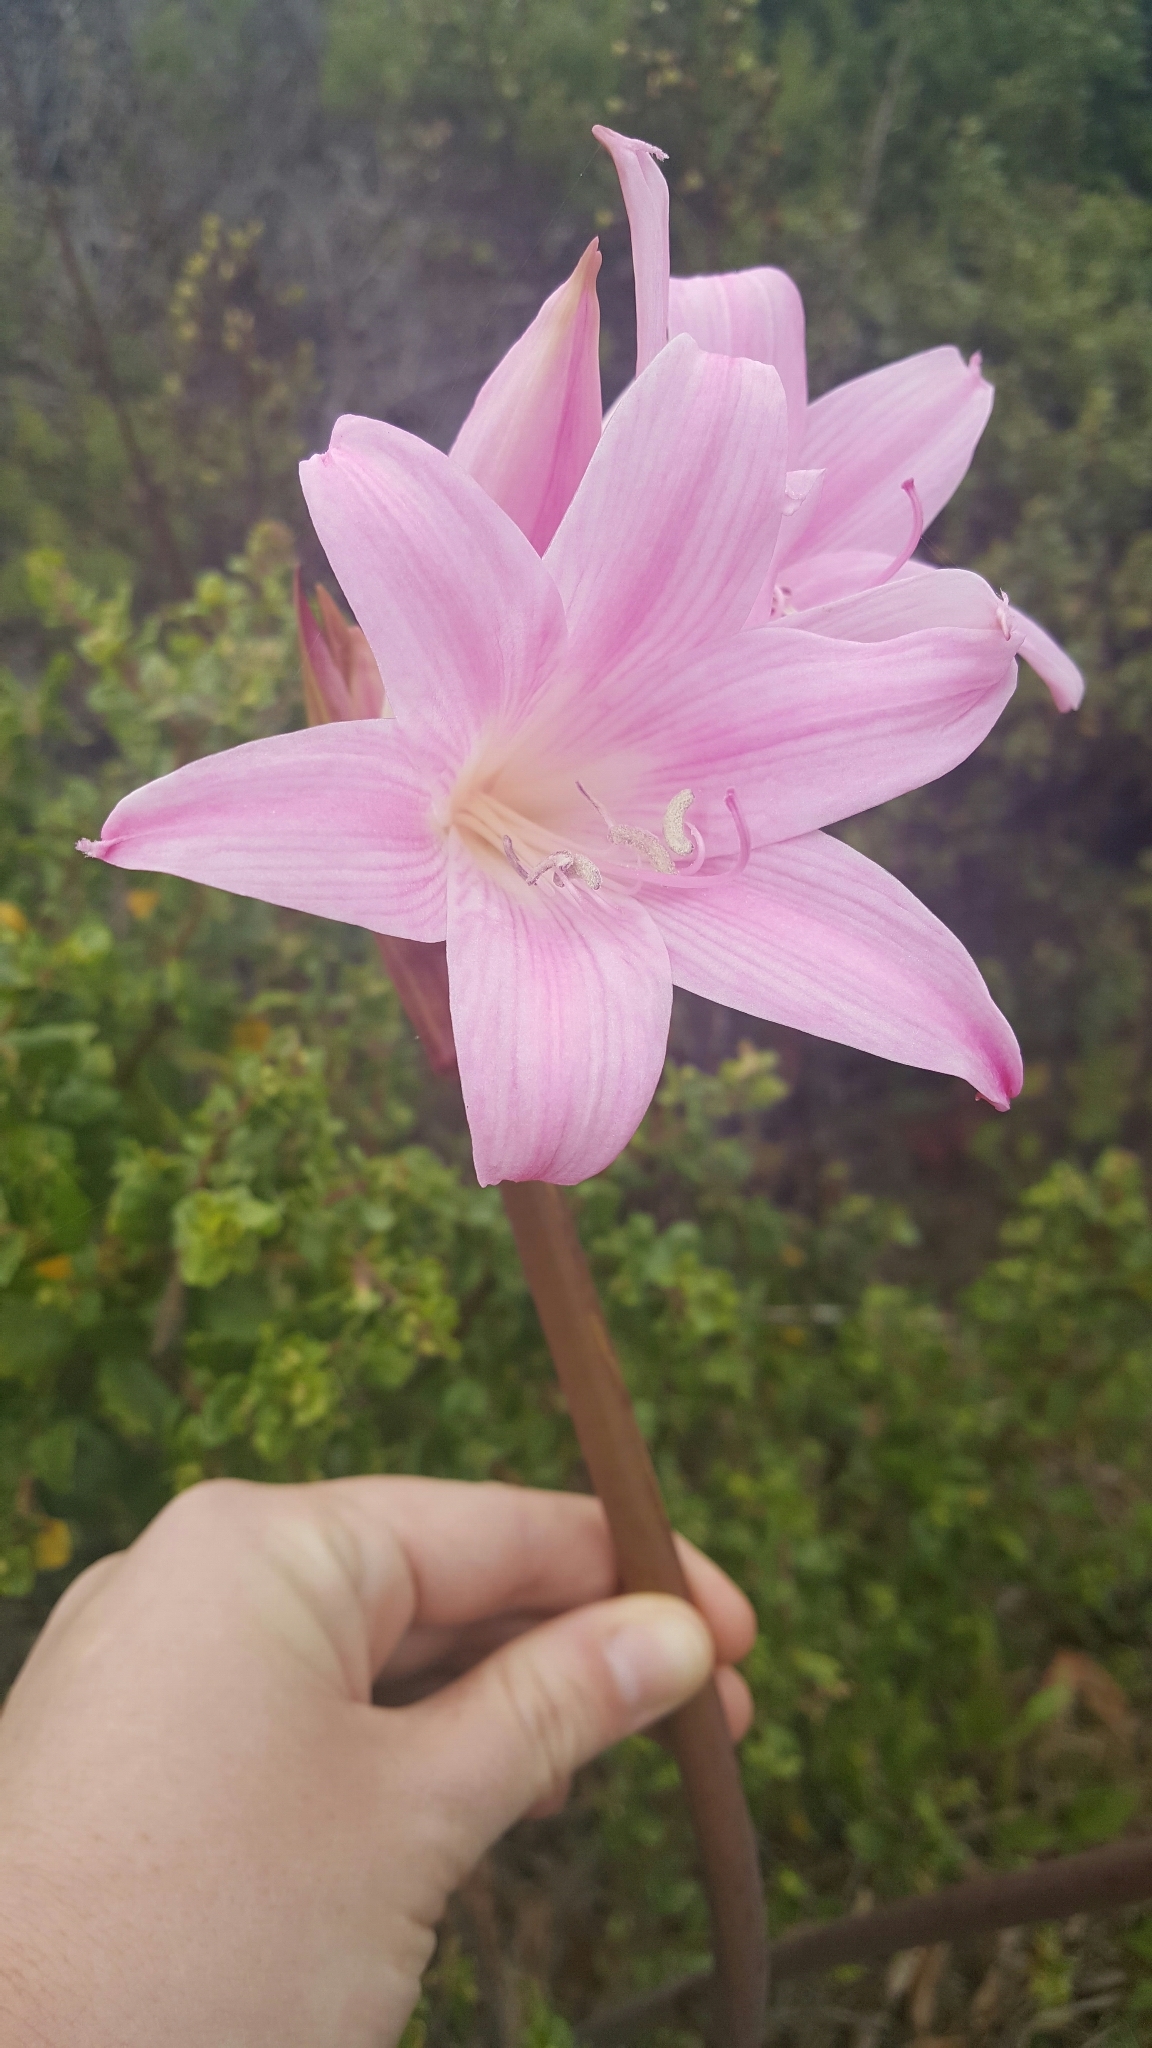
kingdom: Plantae
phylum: Tracheophyta
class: Liliopsida
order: Asparagales
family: Amaryllidaceae
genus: Amaryllis
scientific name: Amaryllis belladonna
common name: Jersey lily
